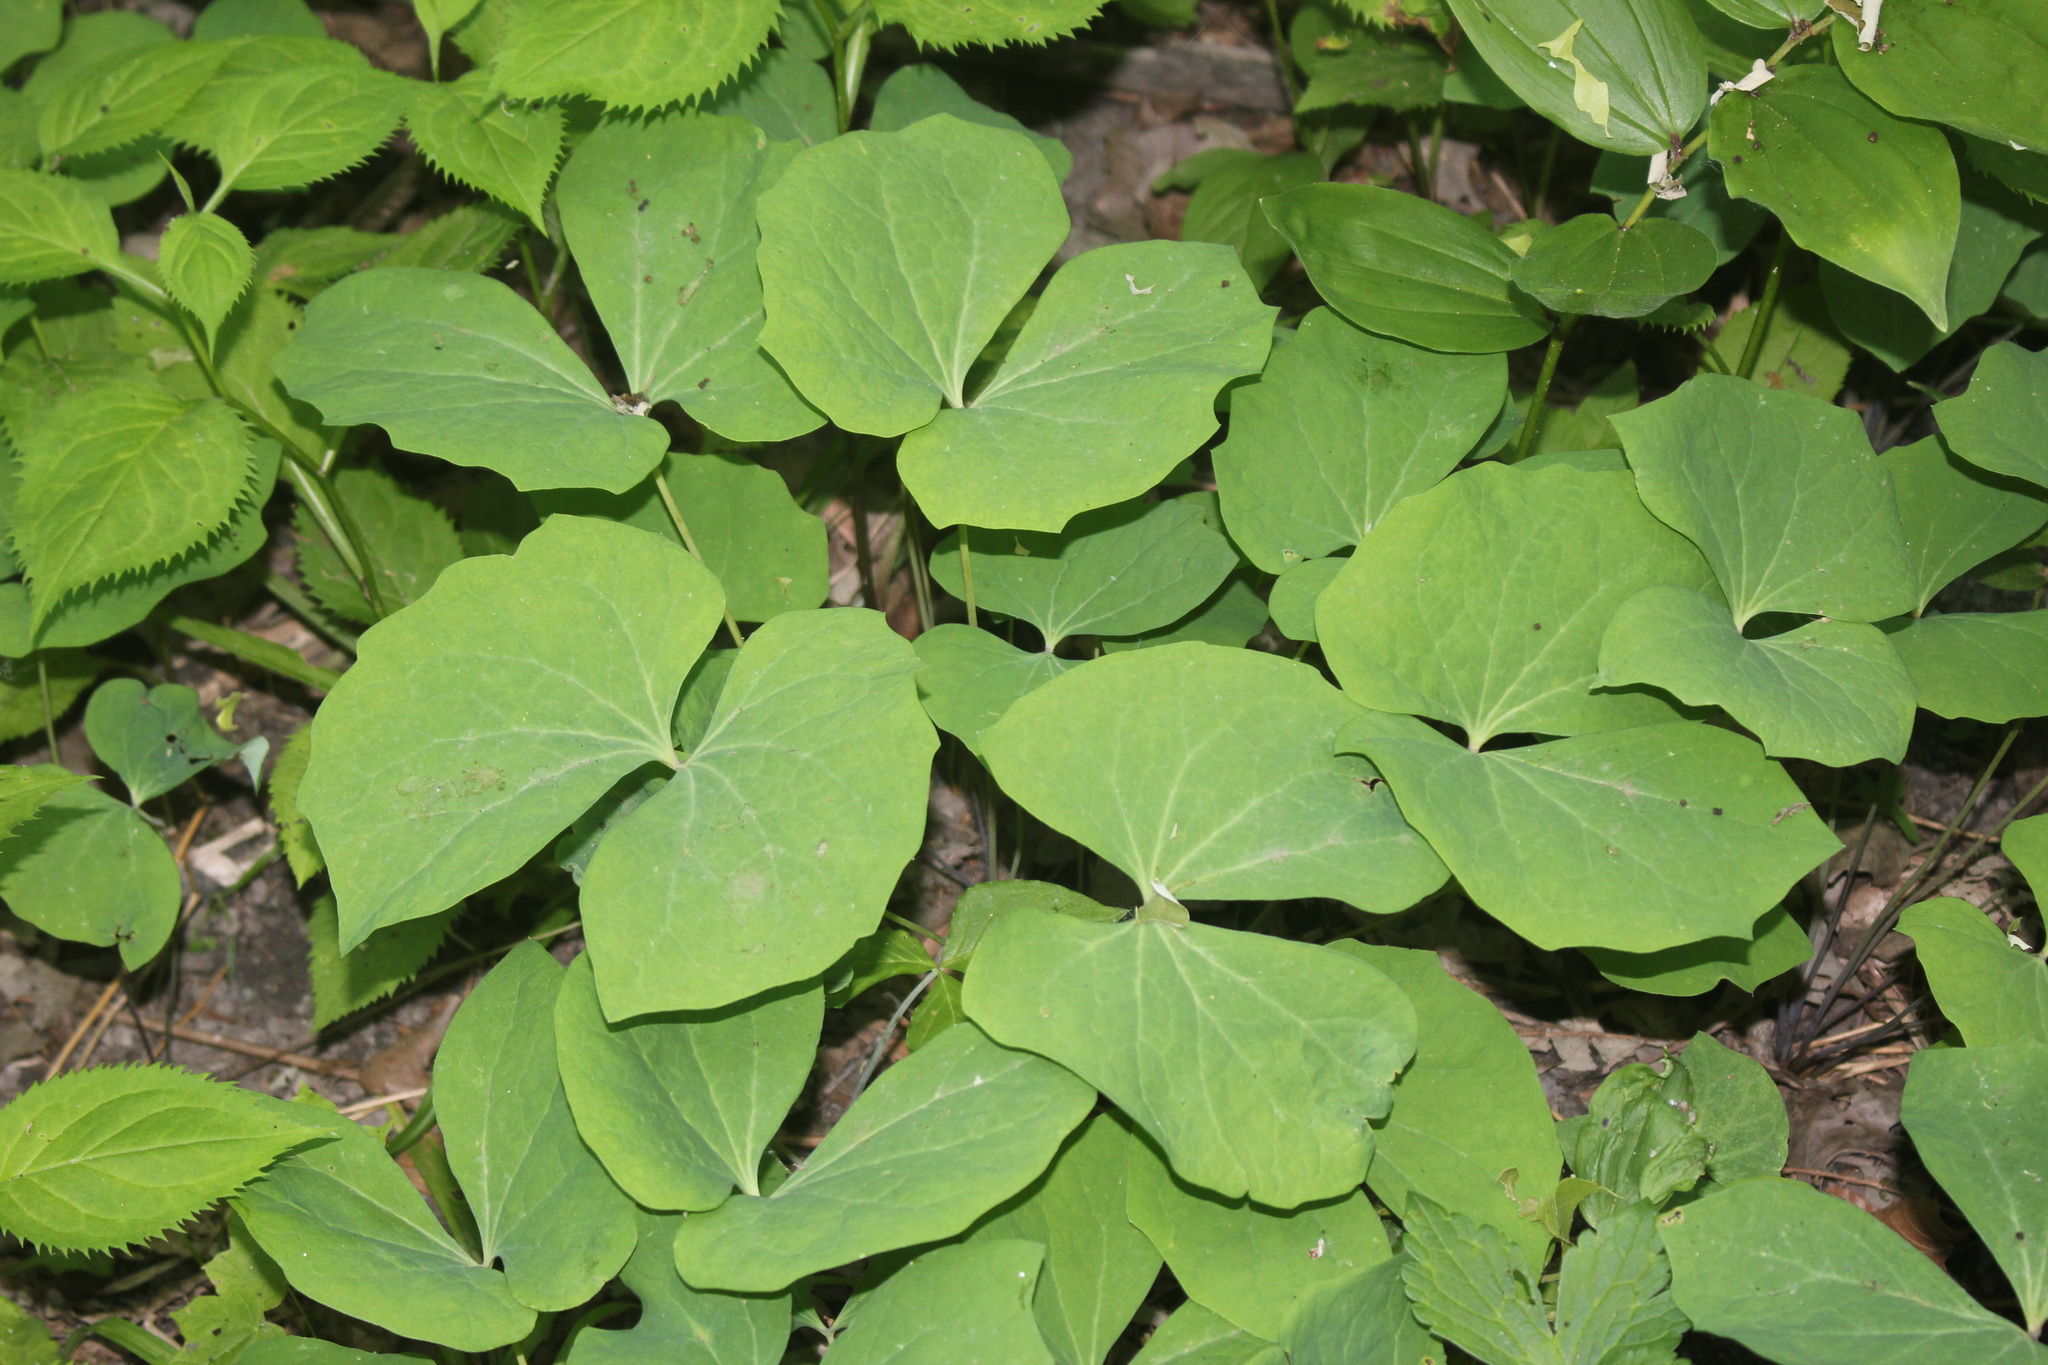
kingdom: Plantae
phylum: Tracheophyta
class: Magnoliopsida
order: Ranunculales
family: Berberidaceae
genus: Jeffersonia
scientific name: Jeffersonia diphylla
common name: Rheumatism-root
